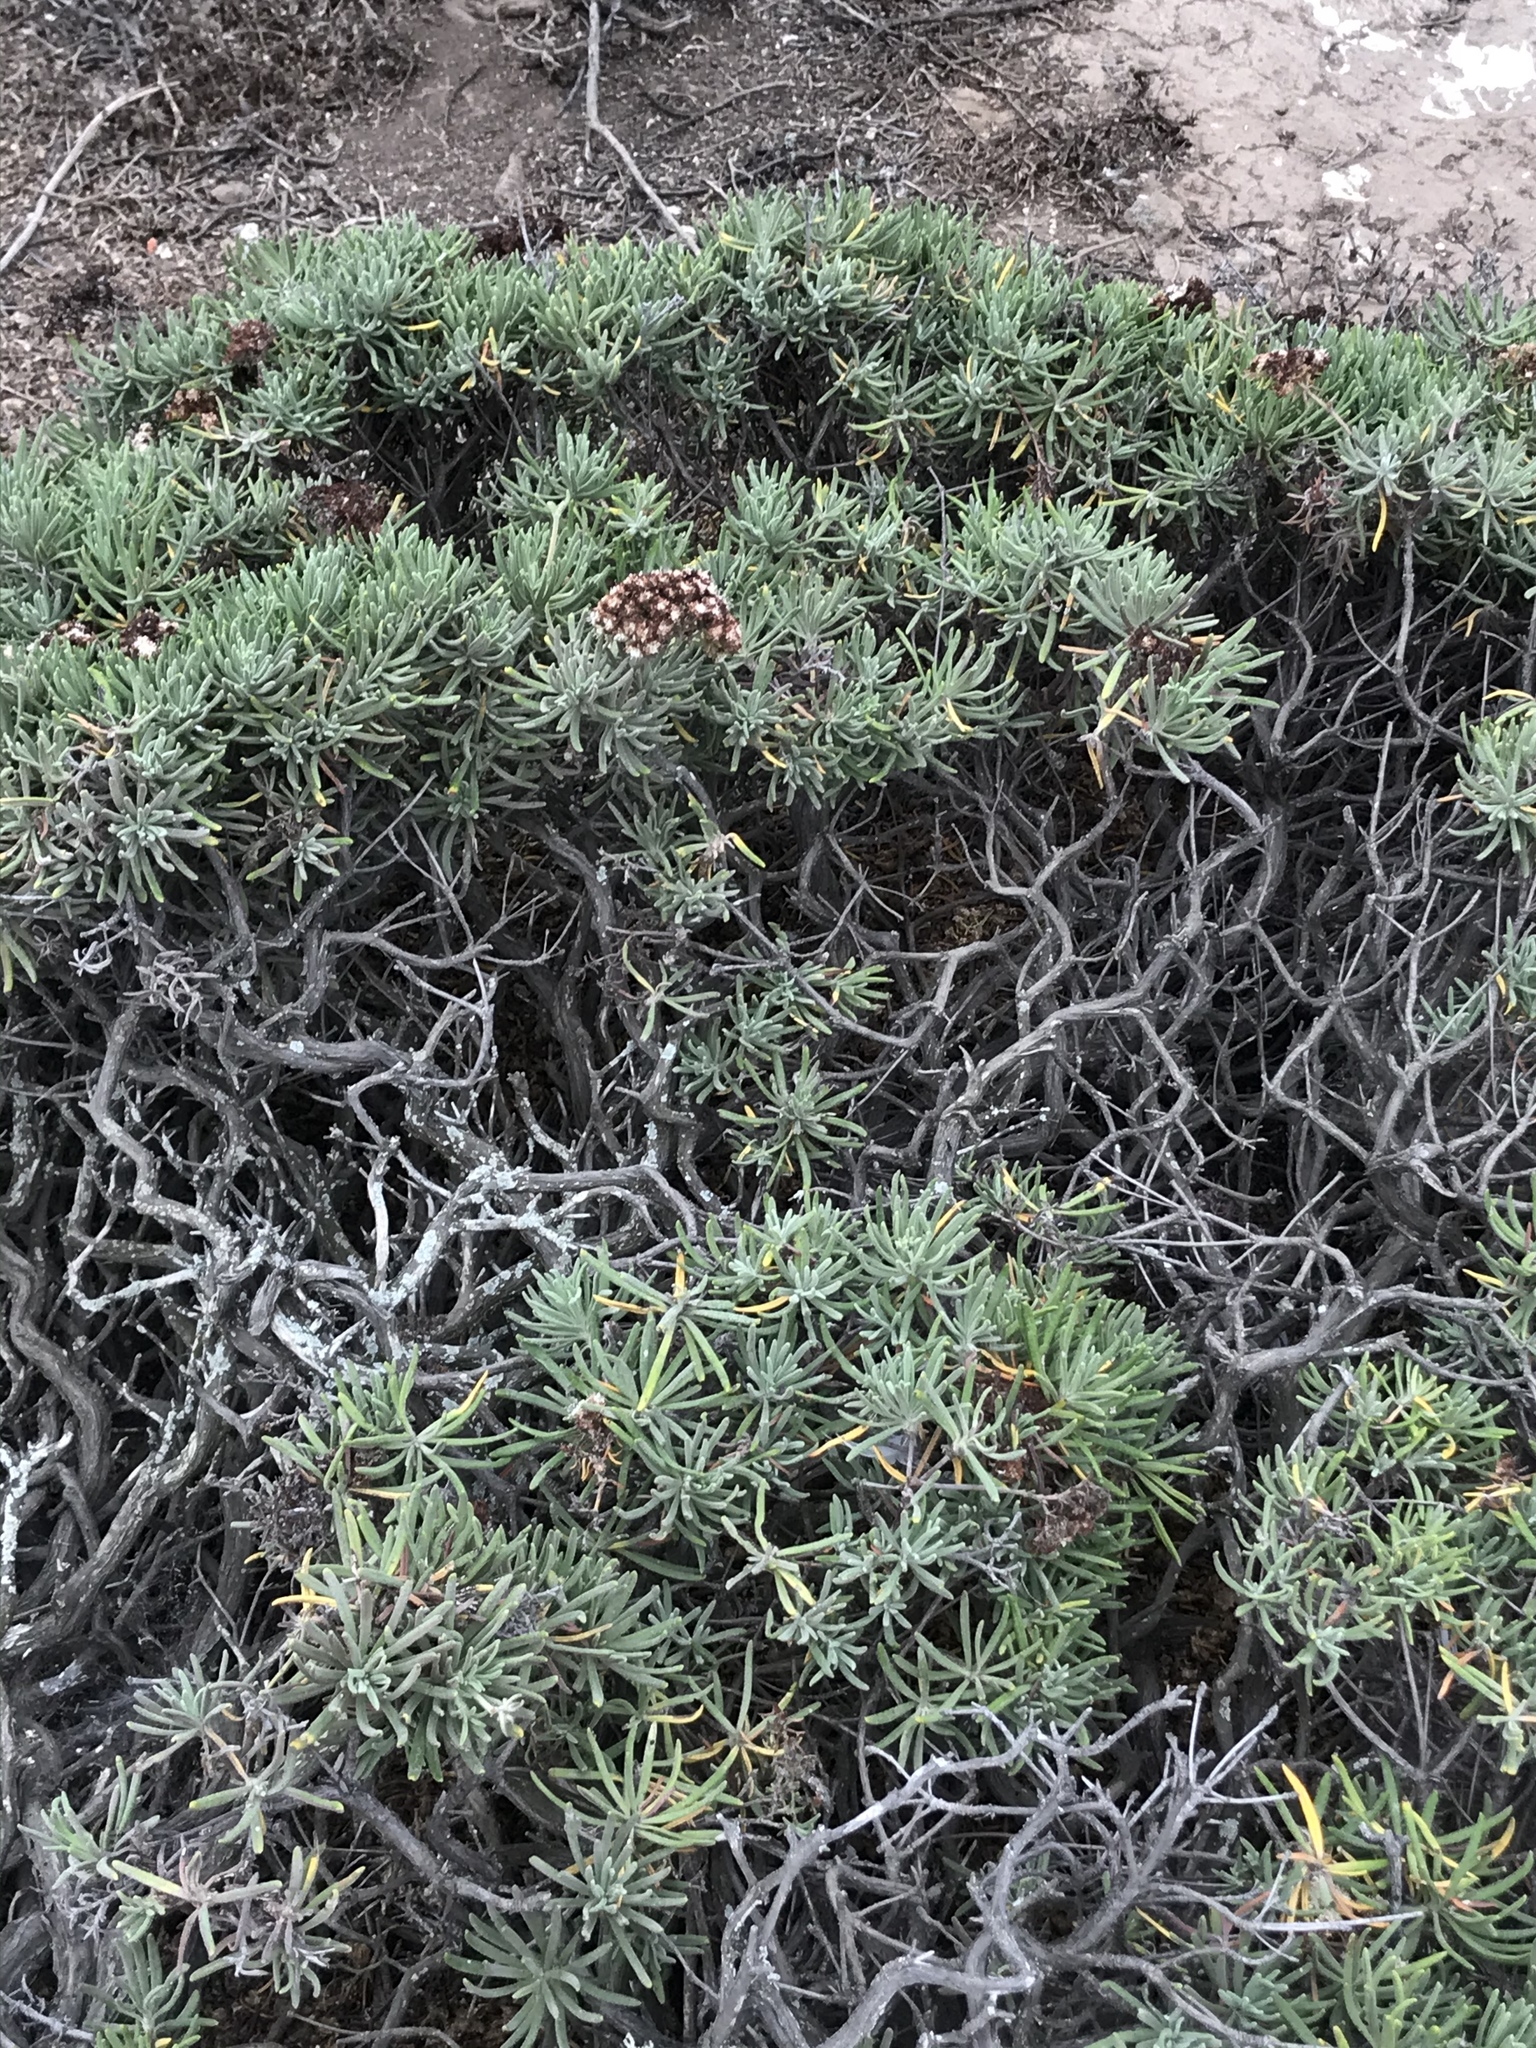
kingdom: Plantae
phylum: Tracheophyta
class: Magnoliopsida
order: Caryophyllales
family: Polygonaceae
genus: Eriogonum
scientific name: Eriogonum arborescens
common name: Island buckwheat
